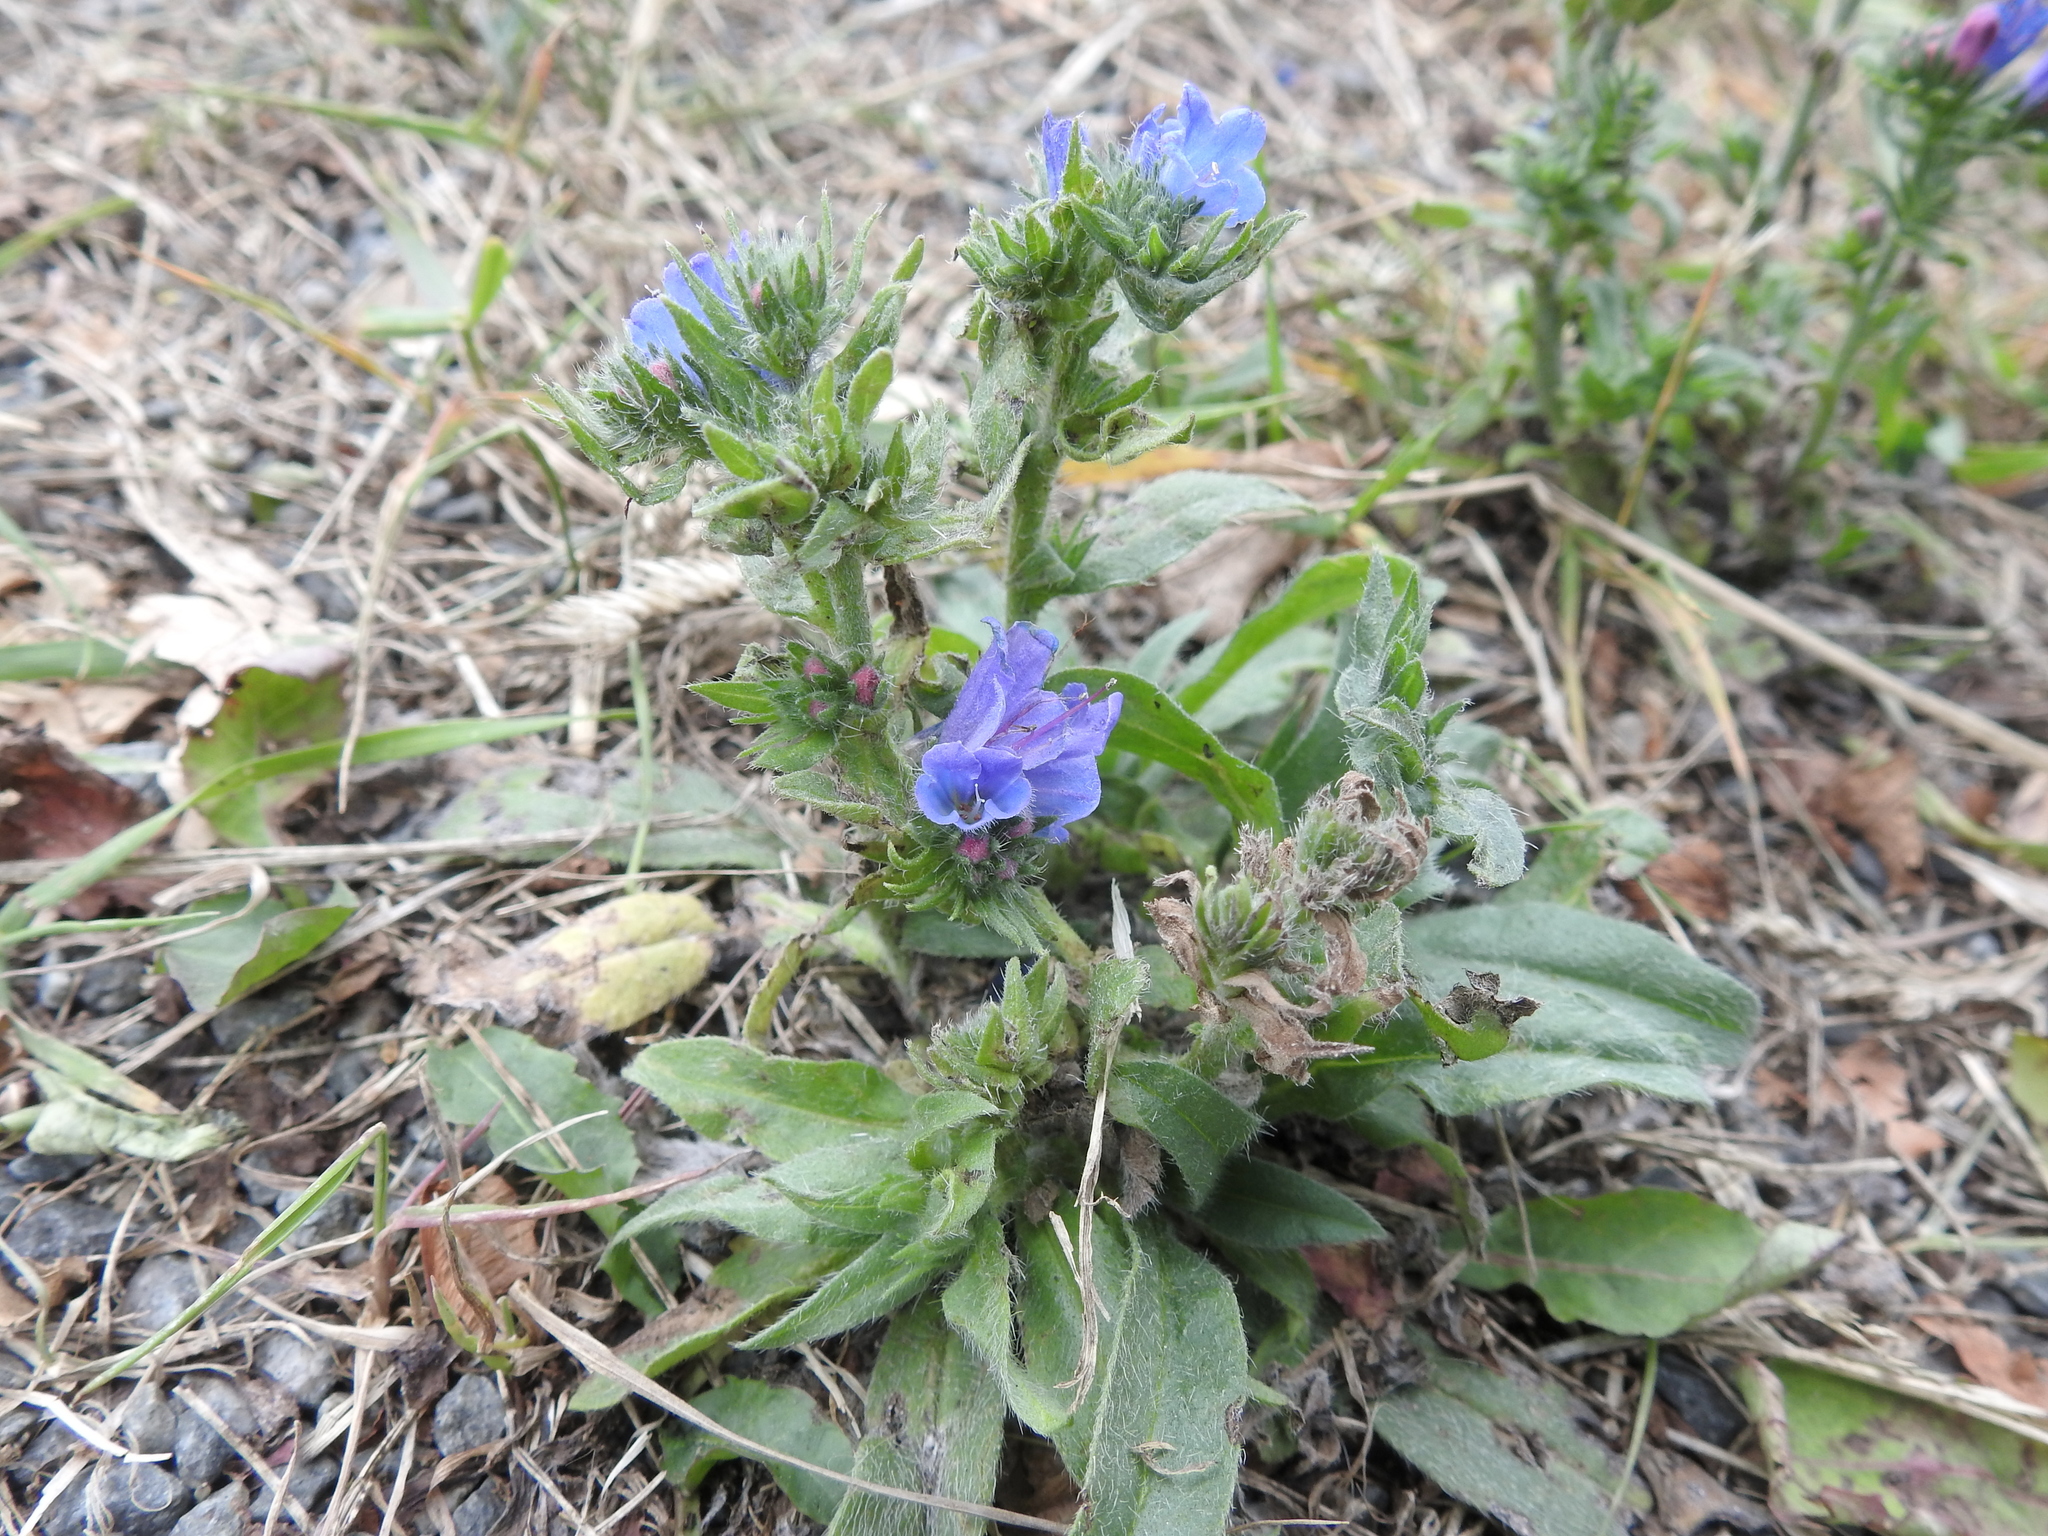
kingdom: Plantae
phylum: Tracheophyta
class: Magnoliopsida
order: Boraginales
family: Boraginaceae
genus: Echium
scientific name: Echium vulgare
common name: Common viper's bugloss
